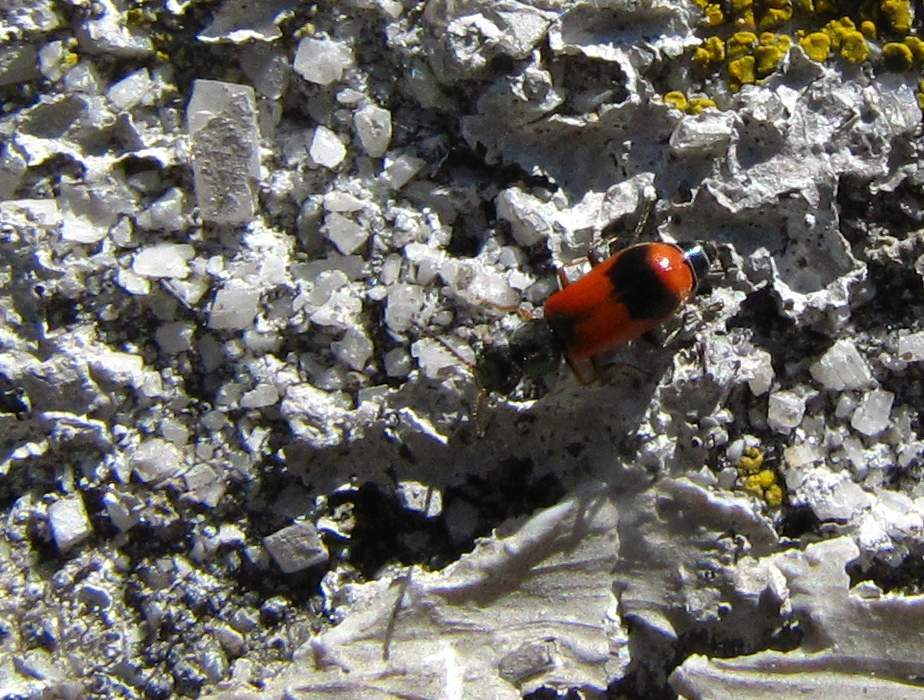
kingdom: Animalia
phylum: Arthropoda
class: Insecta
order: Coleoptera
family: Melyridae
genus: Anthocomus
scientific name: Anthocomus equestris
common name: Black-banded soft-winged flower beetle
